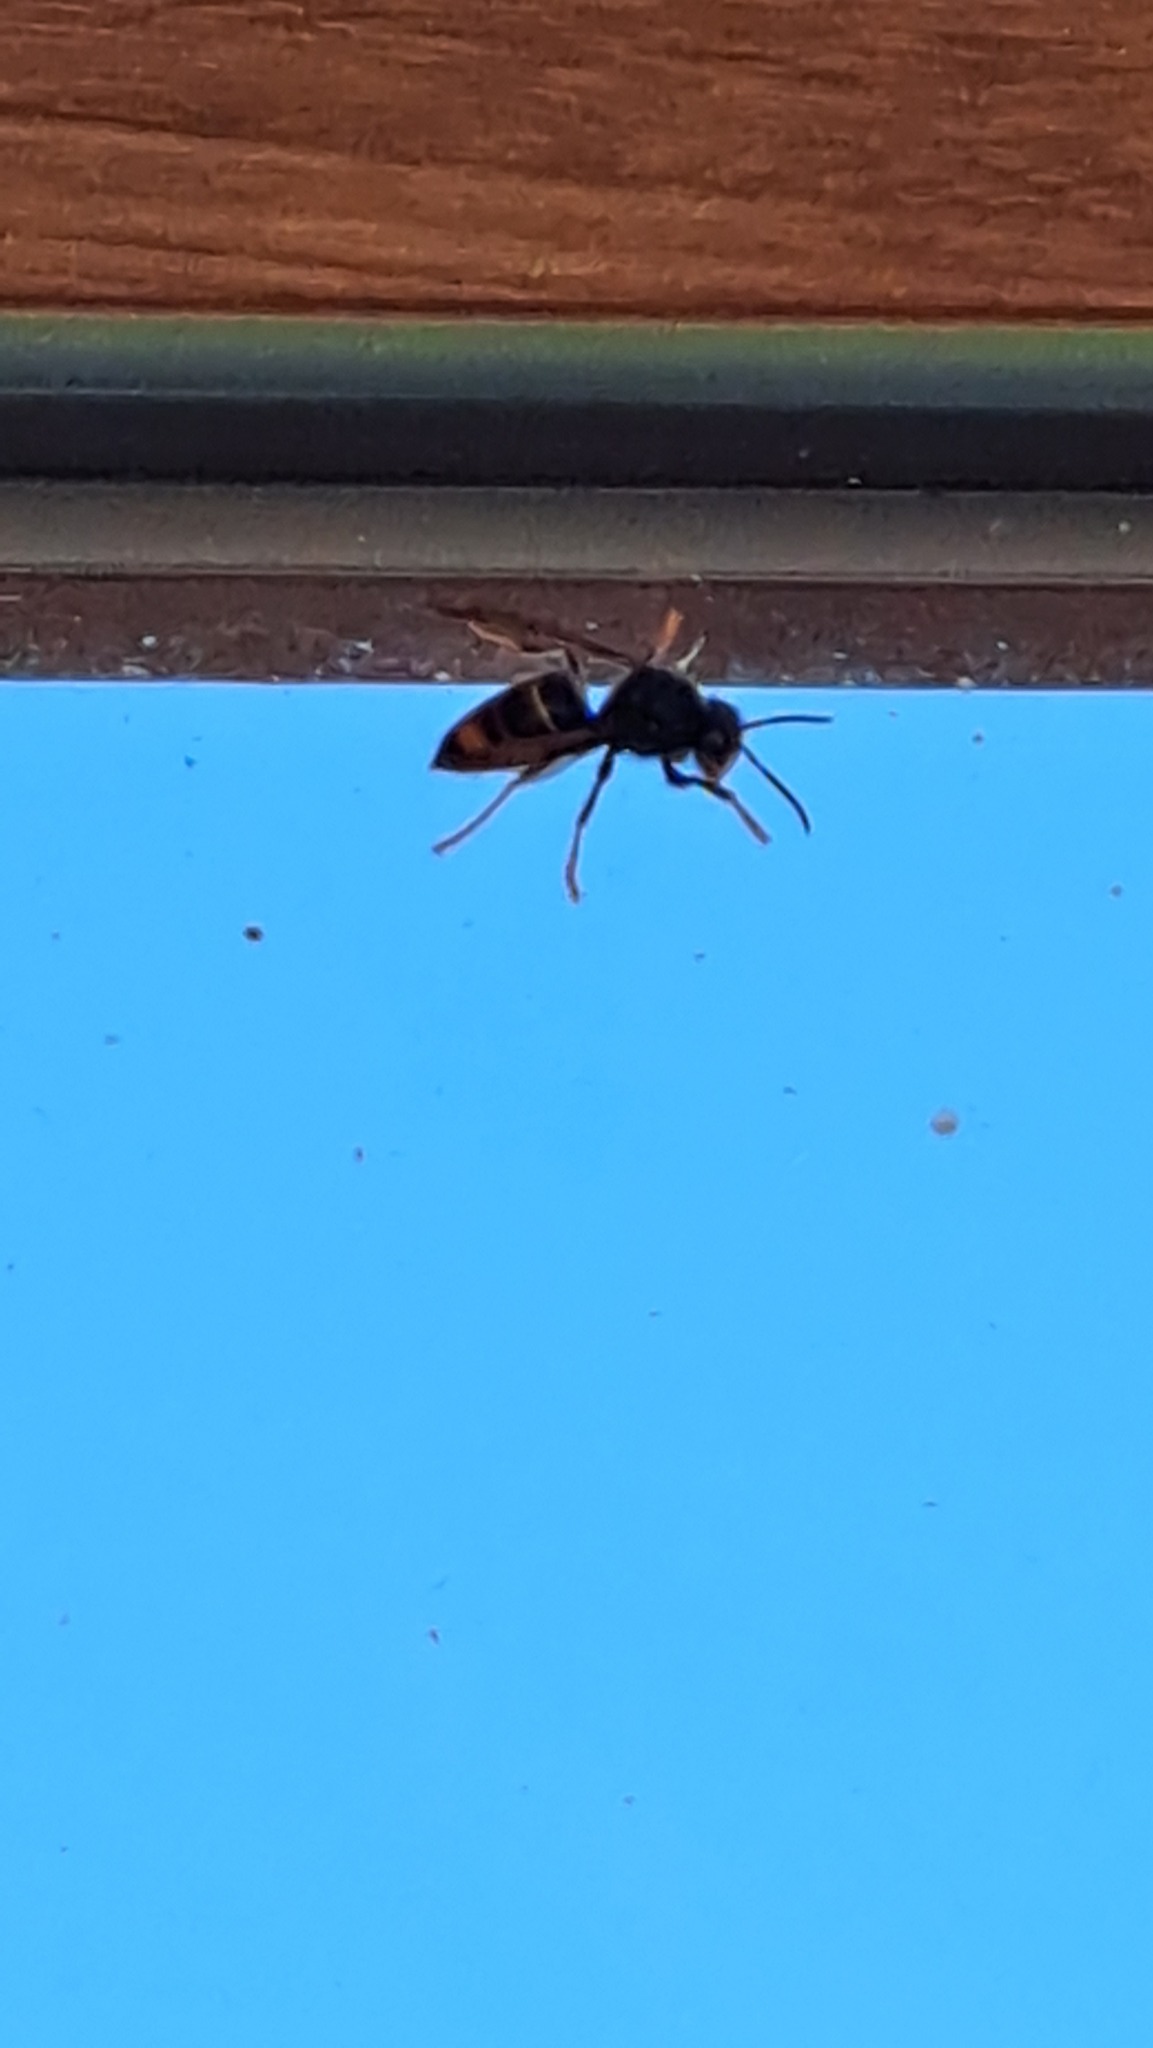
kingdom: Animalia
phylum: Arthropoda
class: Insecta
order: Hymenoptera
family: Vespidae
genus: Vespa
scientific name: Vespa velutina
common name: Asian hornet
